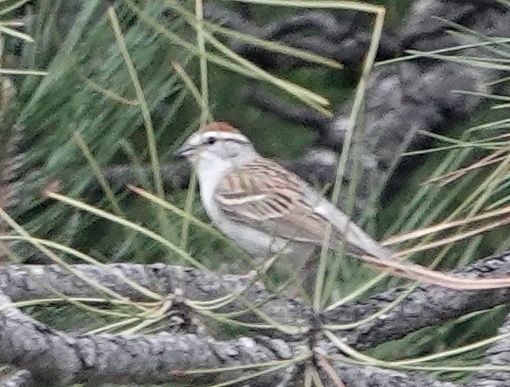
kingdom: Animalia
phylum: Chordata
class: Aves
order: Passeriformes
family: Passerellidae
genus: Spizella
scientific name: Spizella passerina
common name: Chipping sparrow
